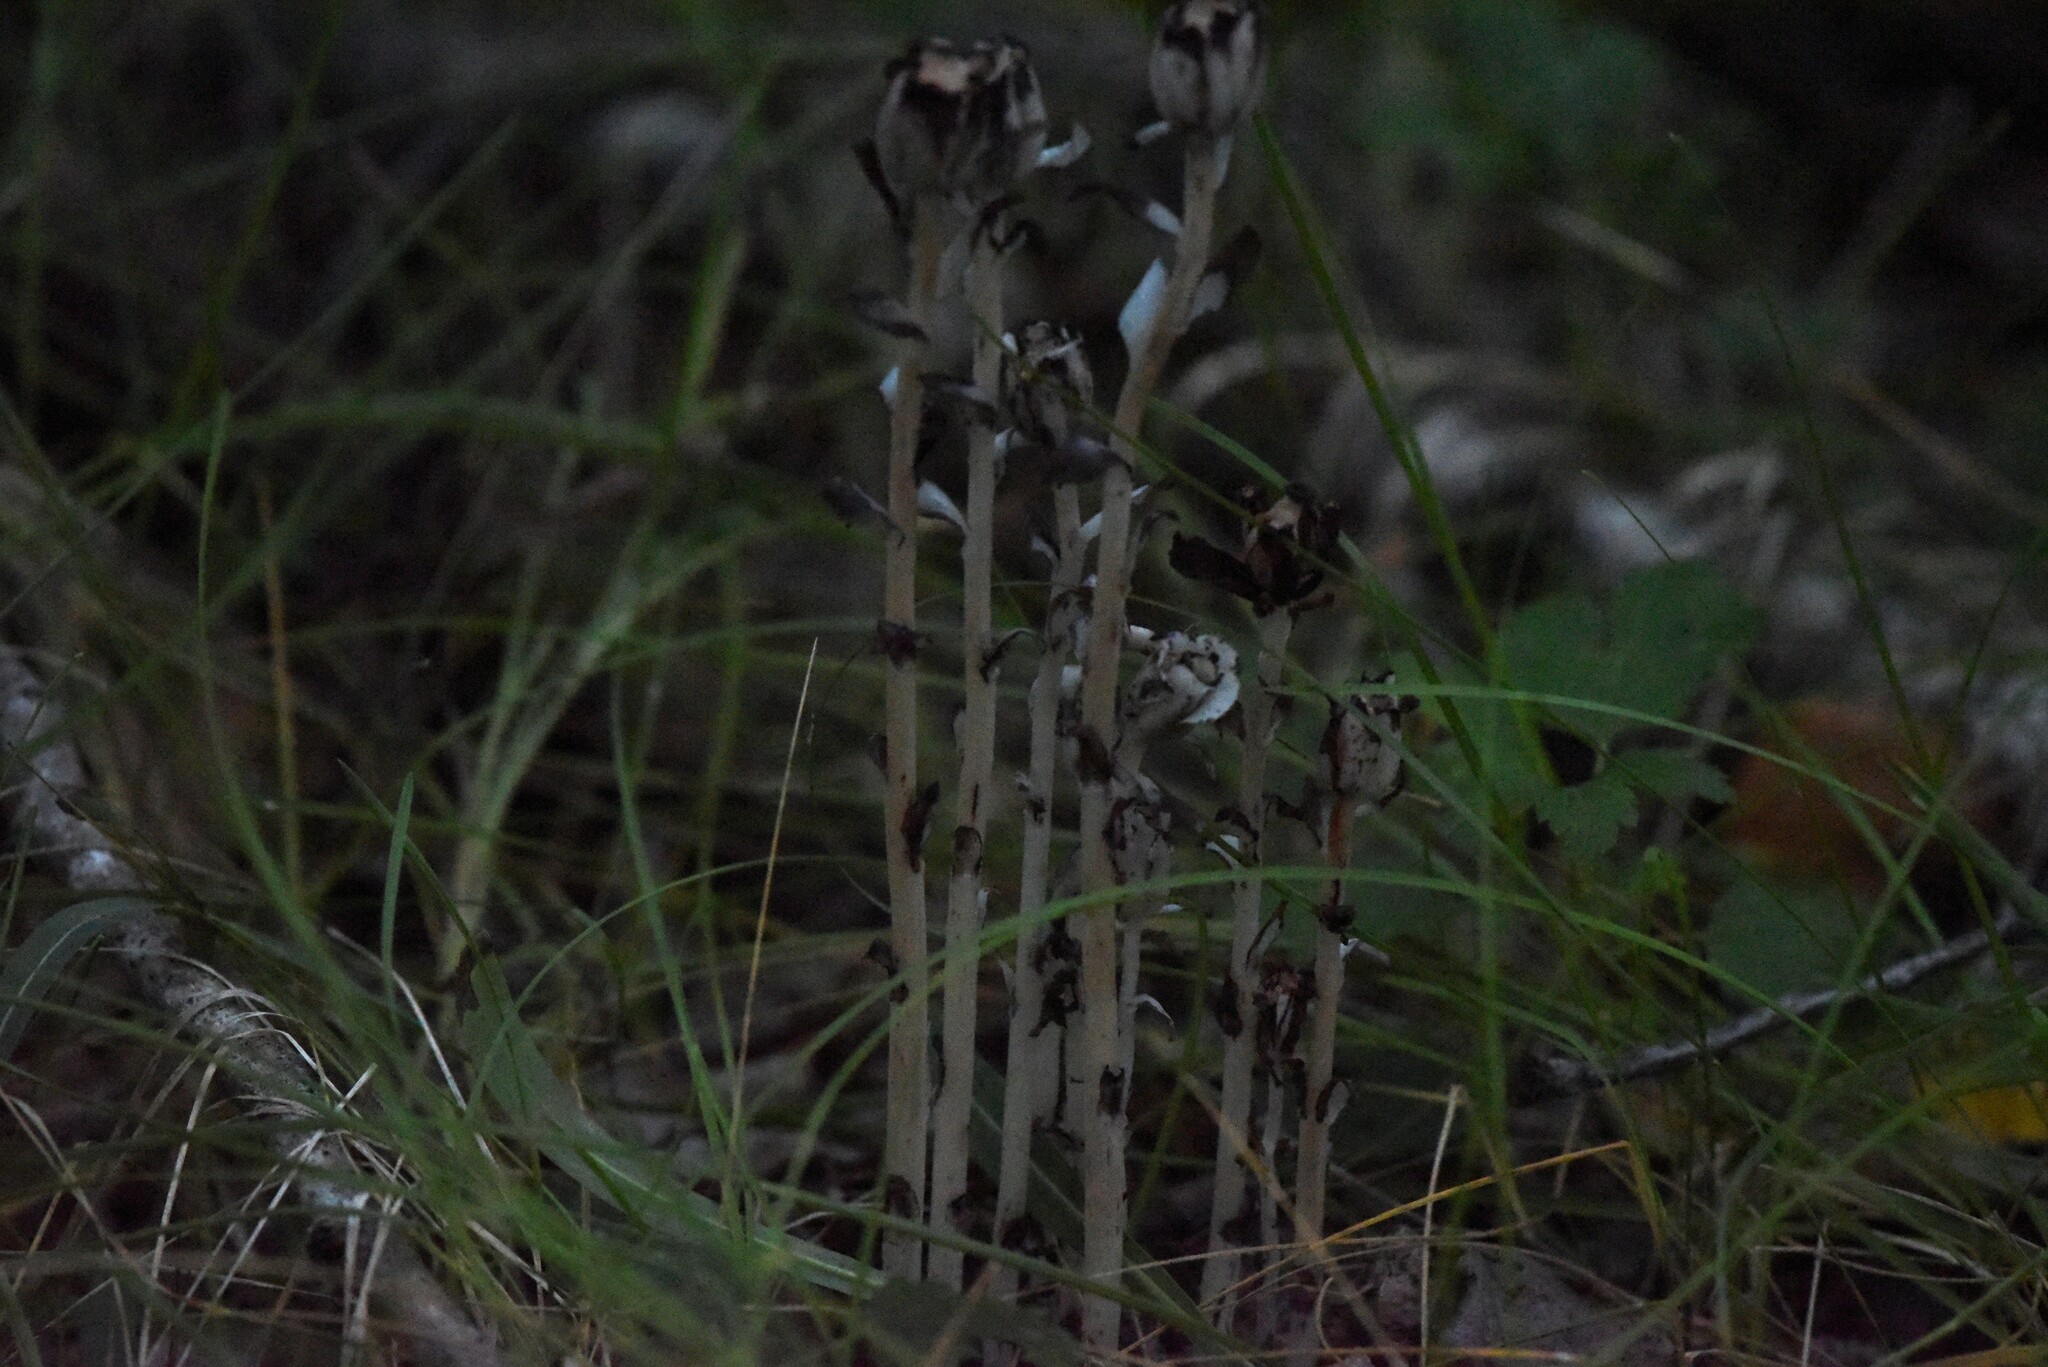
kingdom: Plantae
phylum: Tracheophyta
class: Magnoliopsida
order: Ericales
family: Ericaceae
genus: Monotropa
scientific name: Monotropa uniflora
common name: Convulsion root
